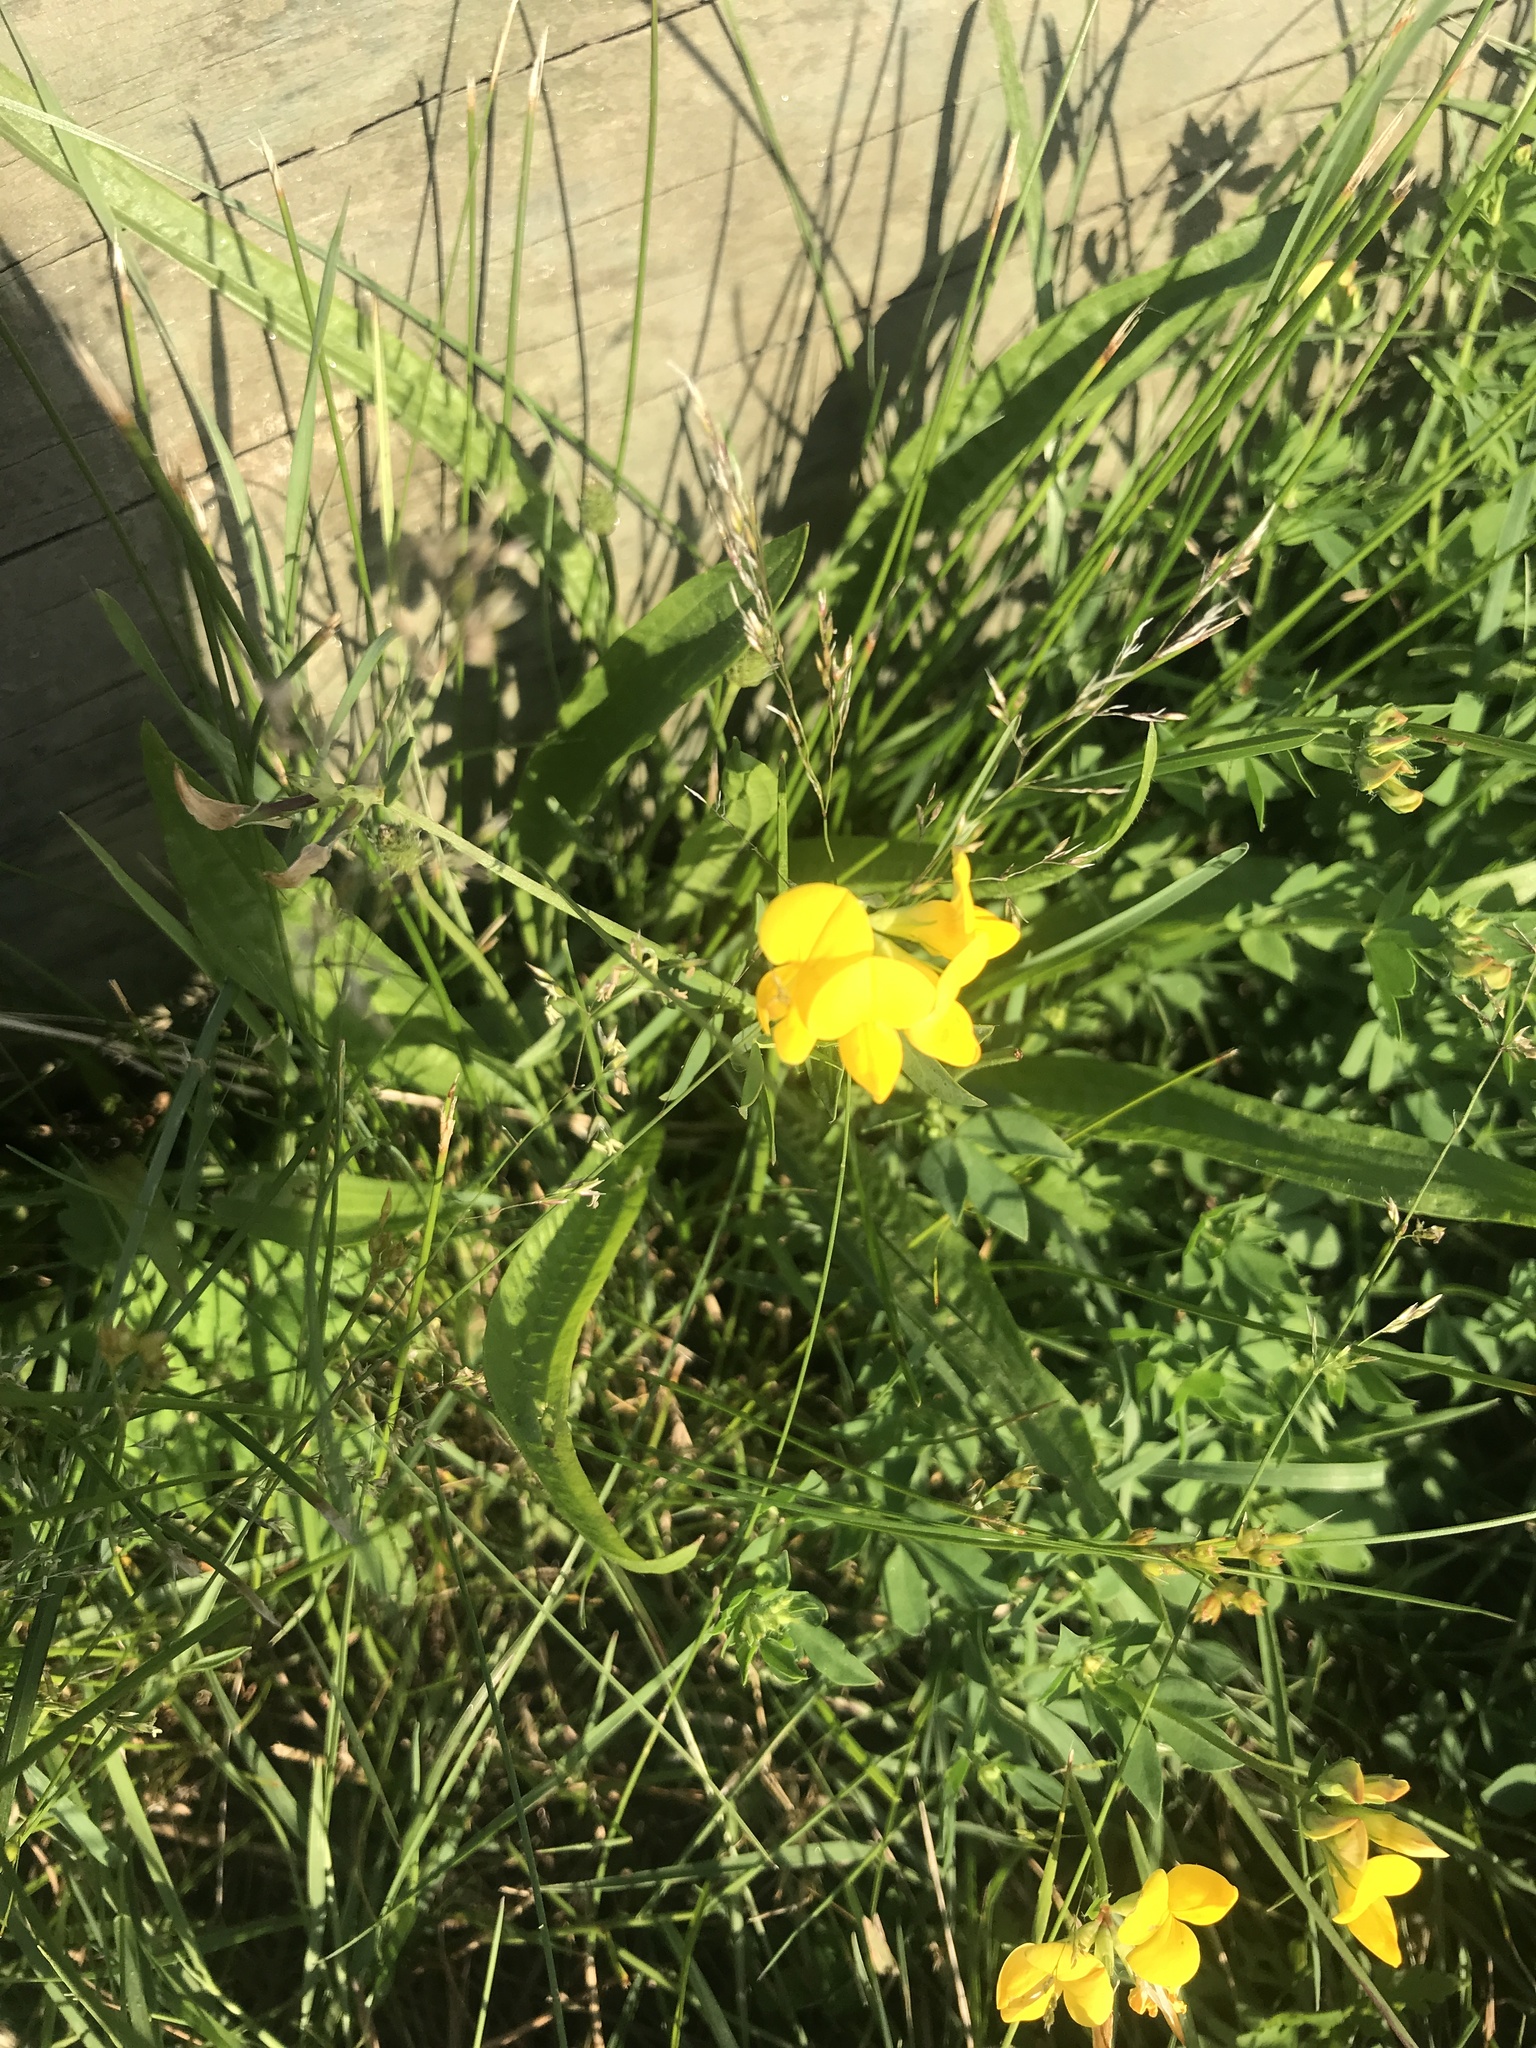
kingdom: Plantae
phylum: Tracheophyta
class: Magnoliopsida
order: Fabales
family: Fabaceae
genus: Lotus
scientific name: Lotus corniculatus
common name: Common bird's-foot-trefoil
